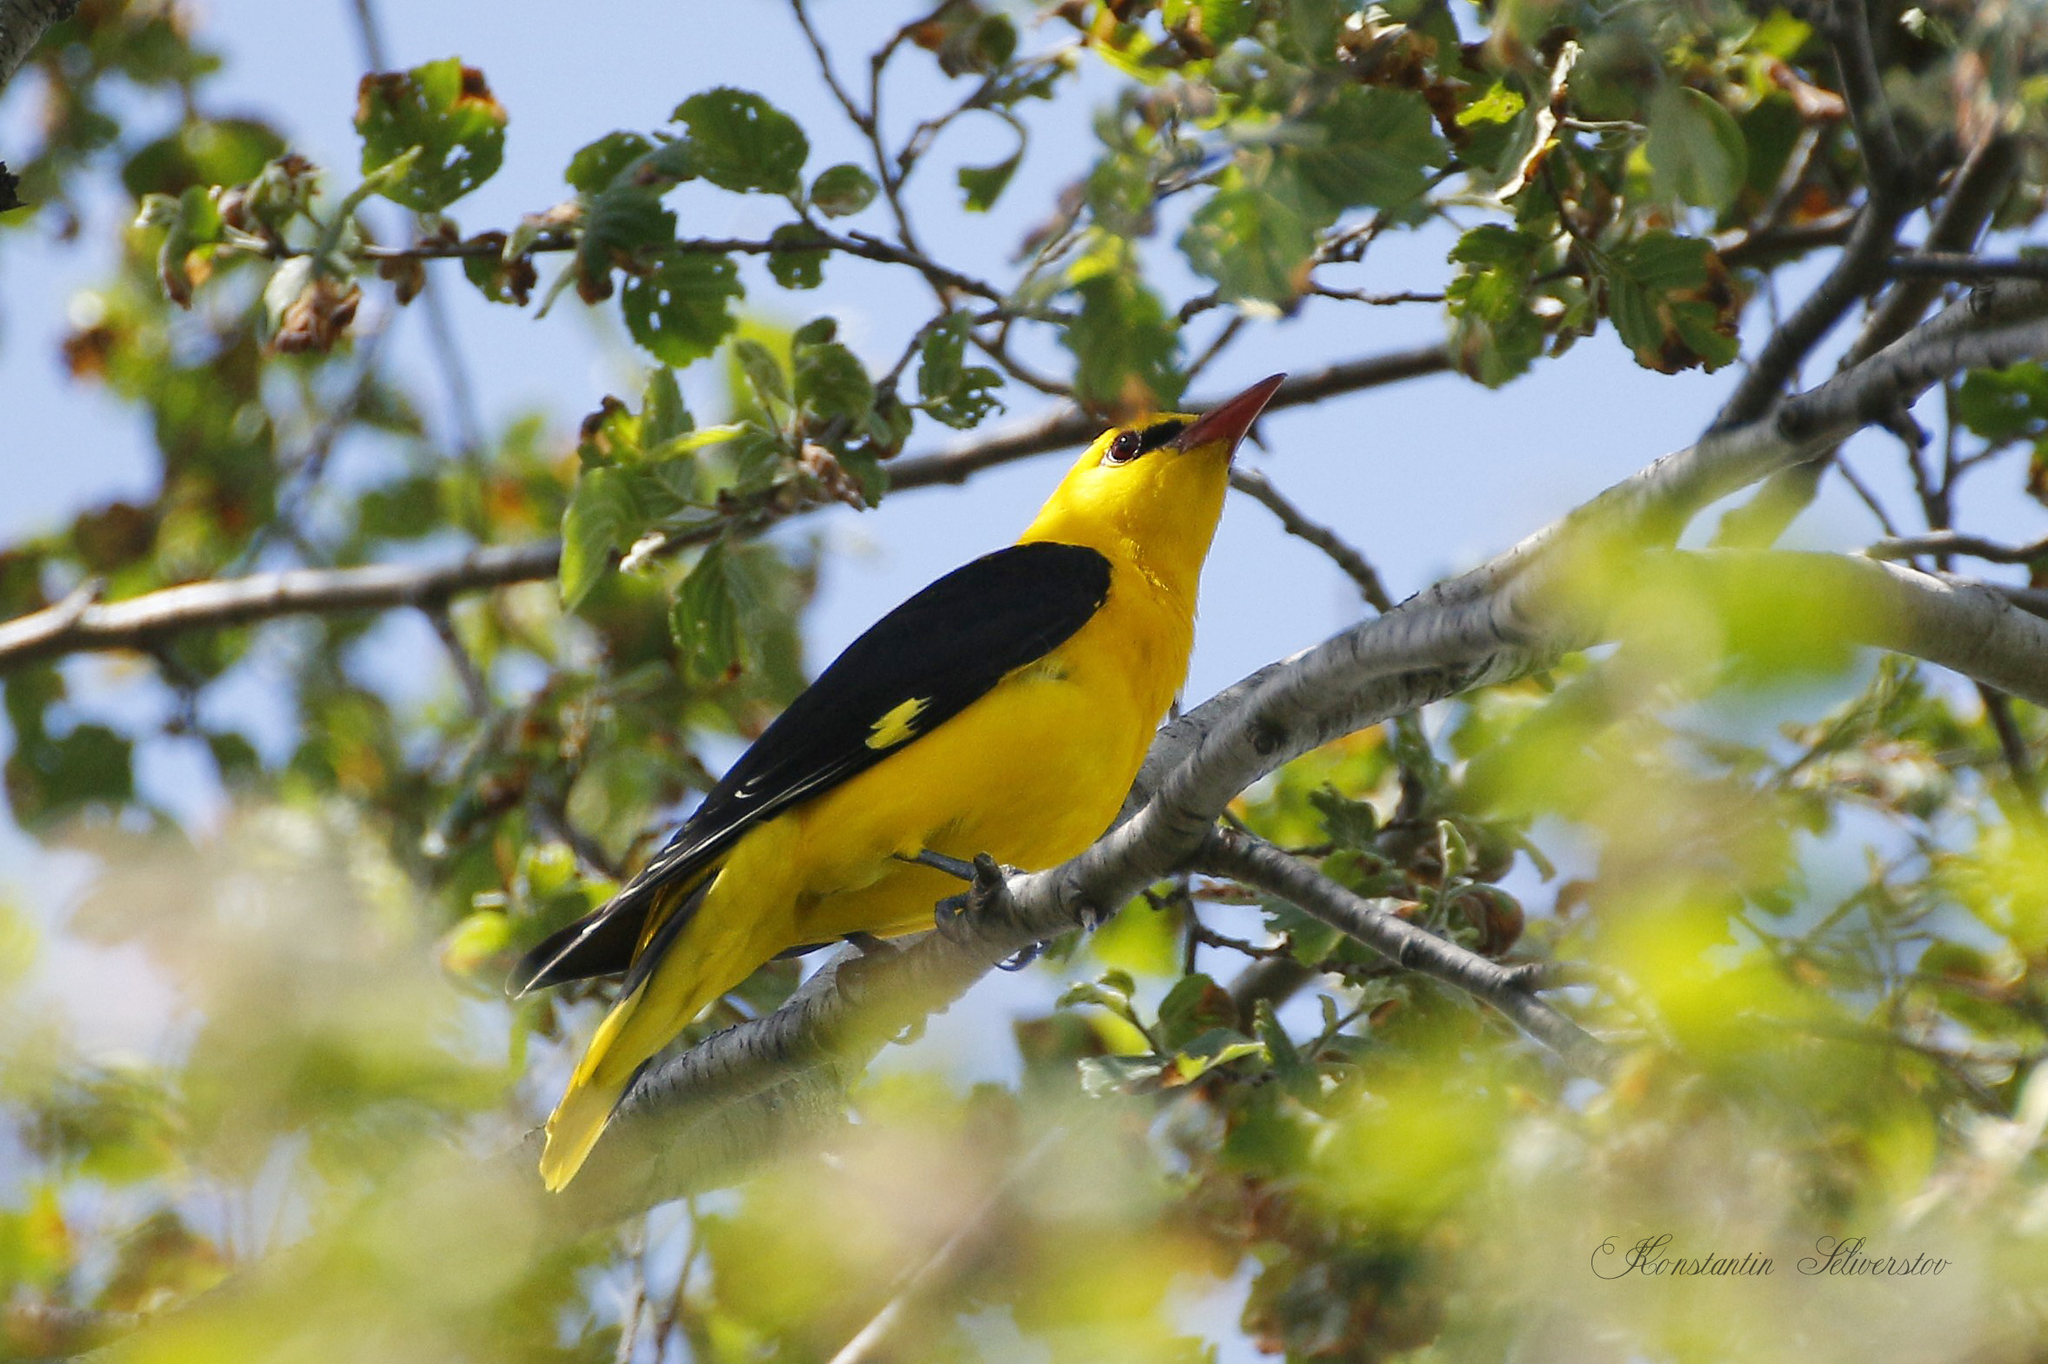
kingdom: Animalia
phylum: Chordata
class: Aves
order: Passeriformes
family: Oriolidae
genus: Oriolus
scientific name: Oriolus oriolus
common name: Eurasian golden oriole
